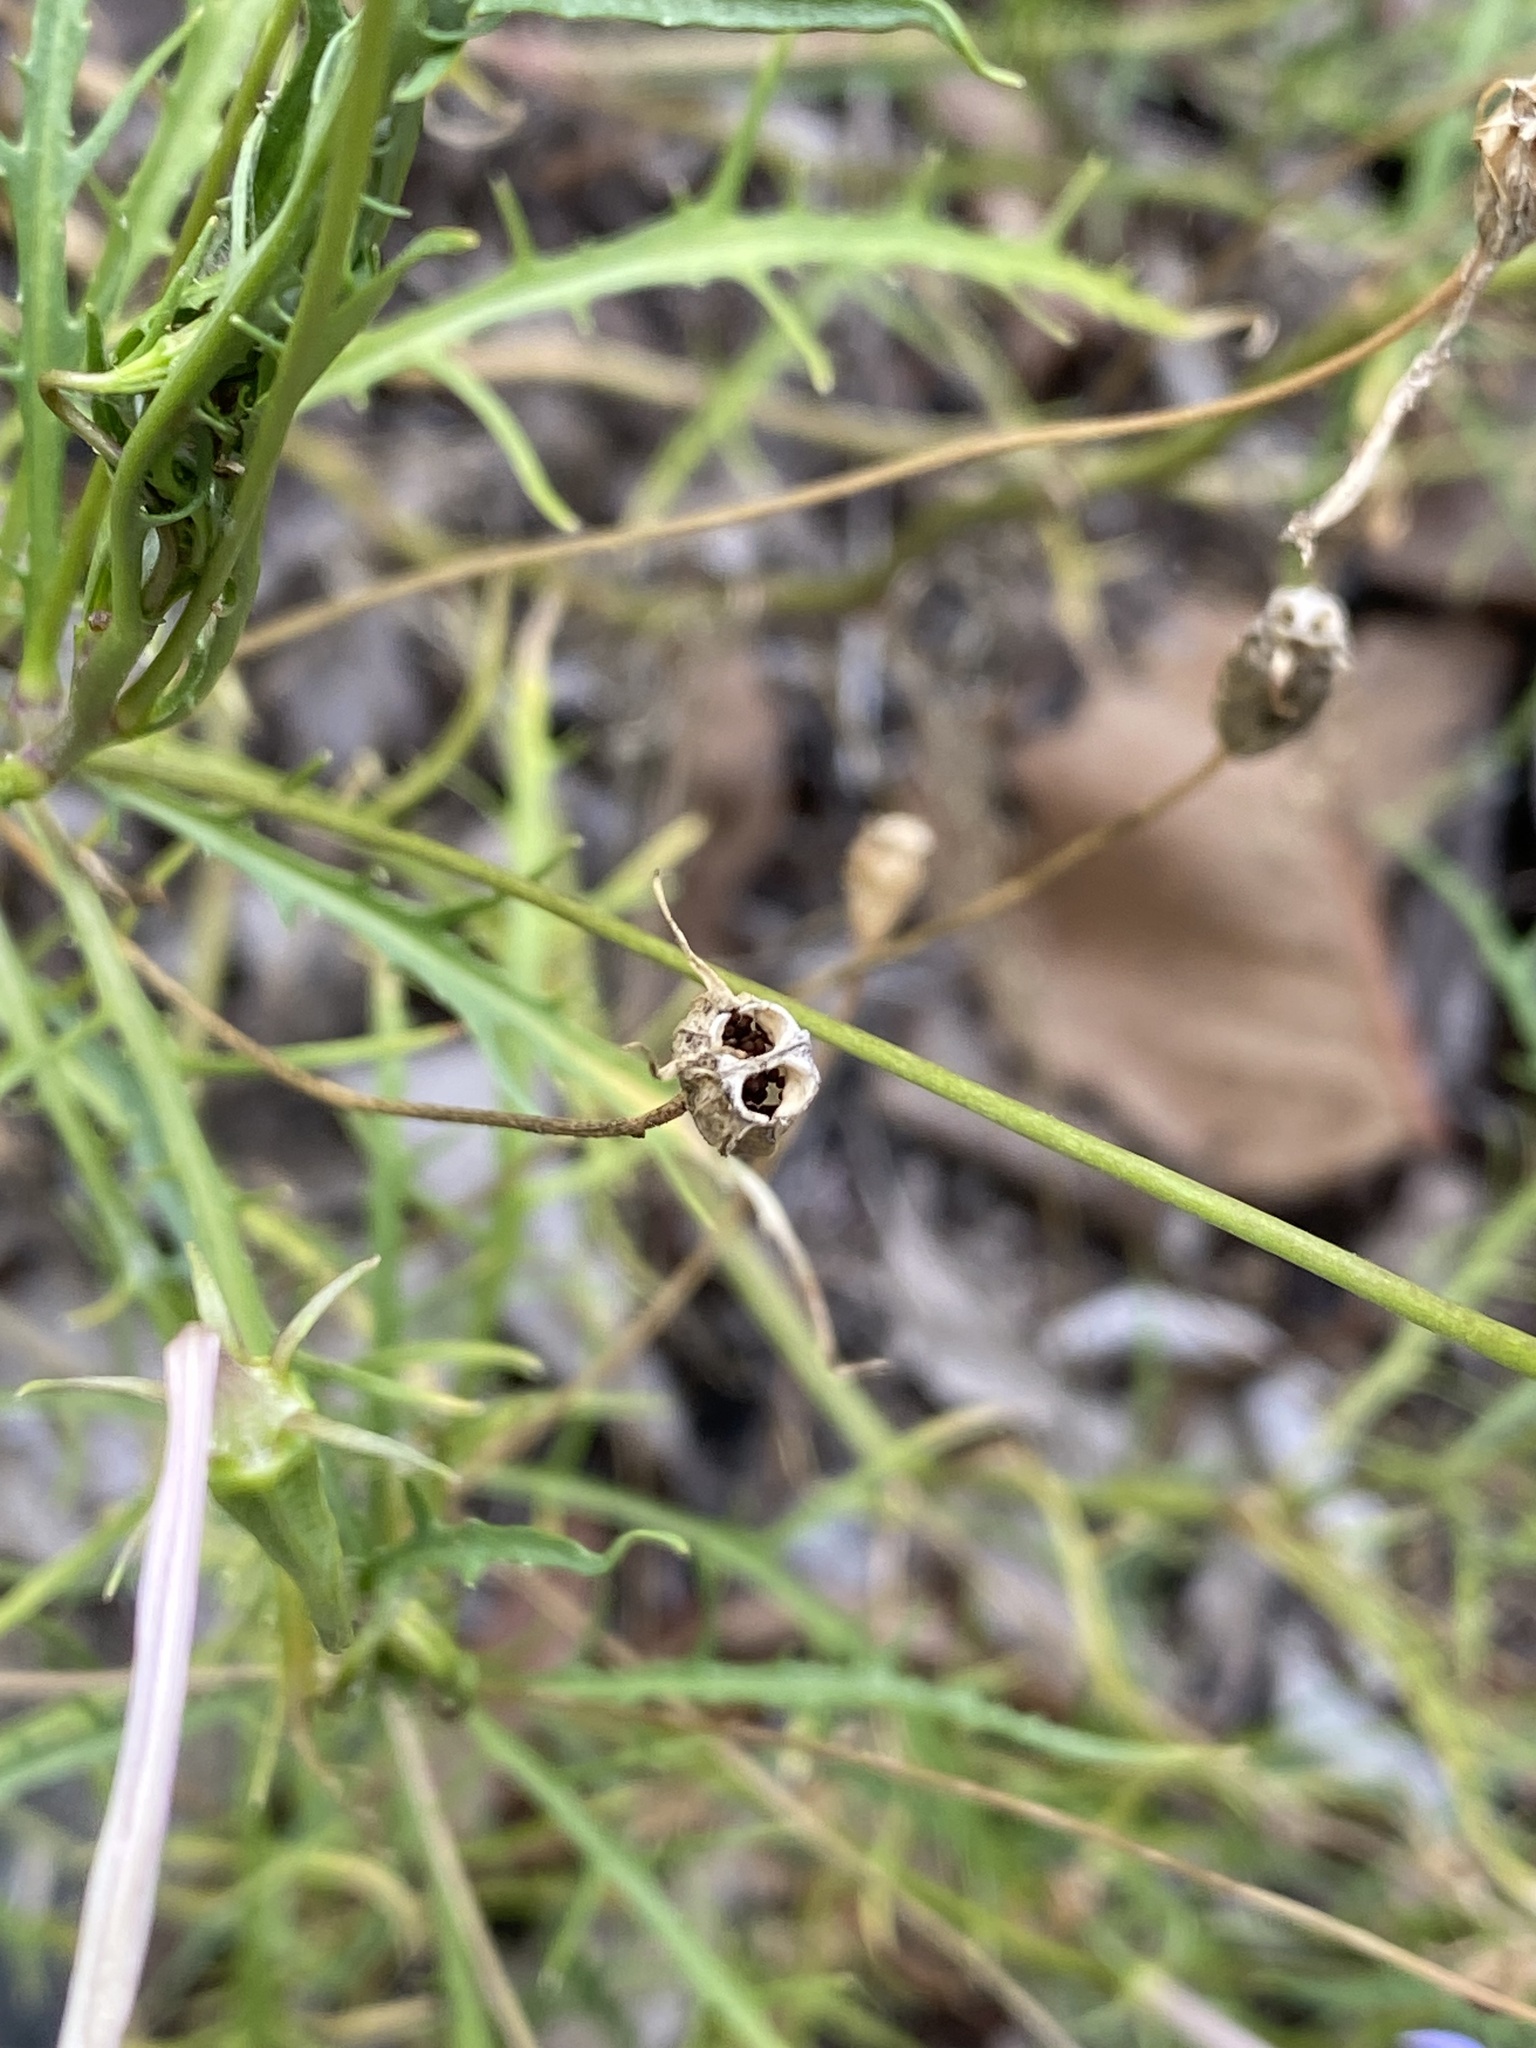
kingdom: Plantae
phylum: Tracheophyta
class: Magnoliopsida
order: Asterales
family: Campanulaceae
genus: Lithotoma
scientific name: Lithotoma axillaris
